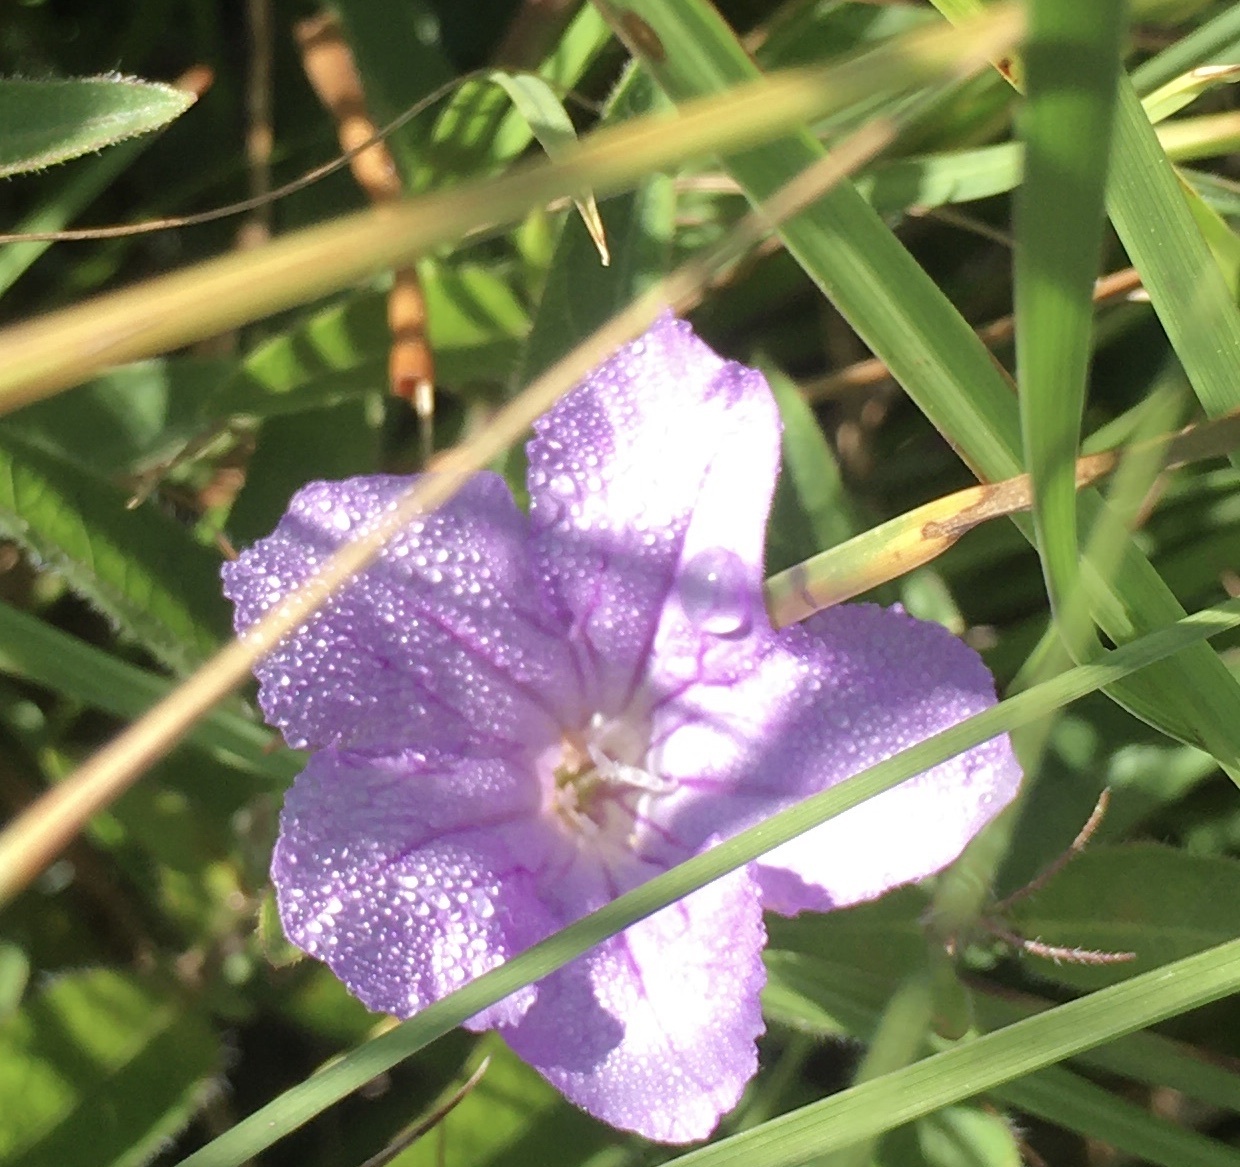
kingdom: Plantae
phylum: Tracheophyta
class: Magnoliopsida
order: Lamiales
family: Acanthaceae
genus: Ruellia
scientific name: Ruellia ciliatiflora
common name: Hairyflower wild petunia
